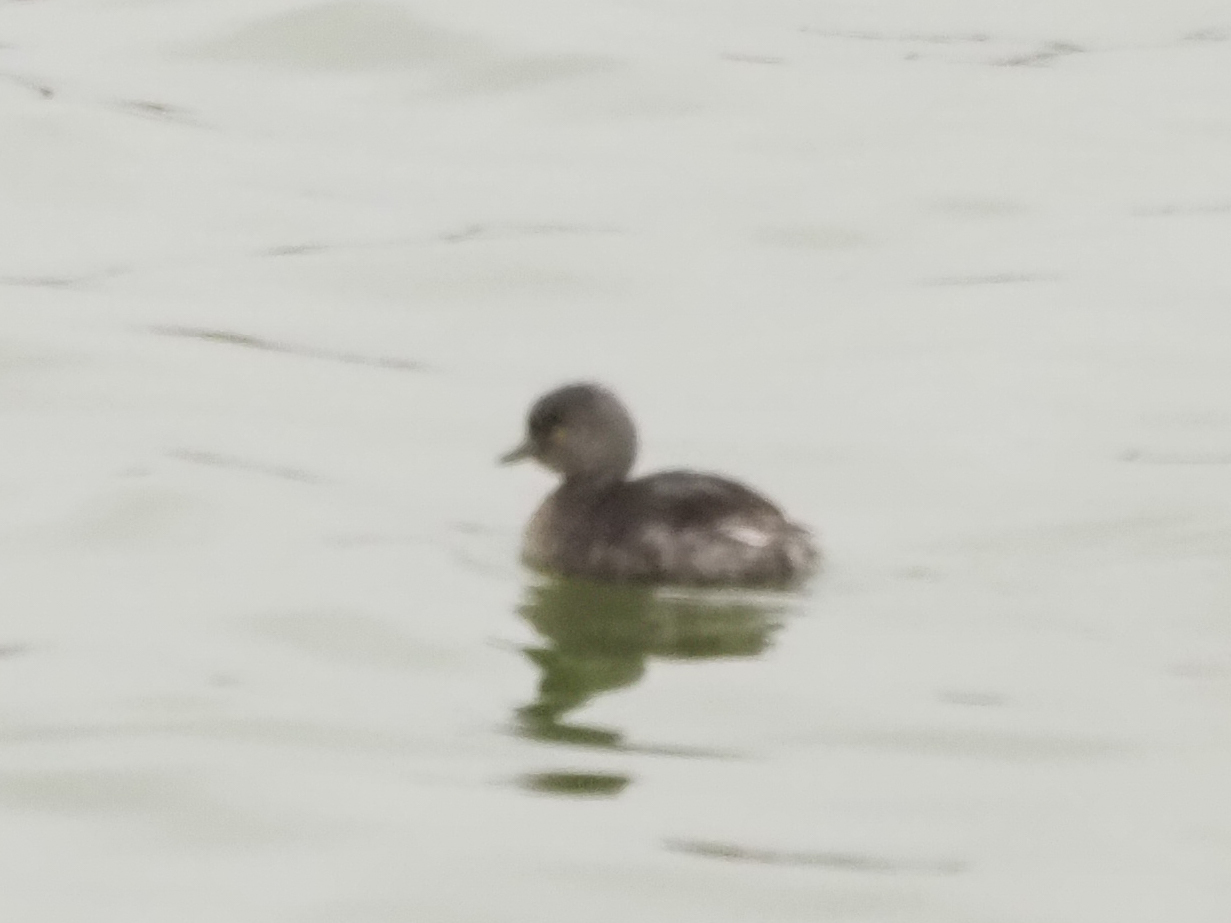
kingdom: Animalia
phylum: Chordata
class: Aves
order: Podicipediformes
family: Podicipedidae
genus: Tachybaptus
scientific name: Tachybaptus dominicus
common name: Least grebe
